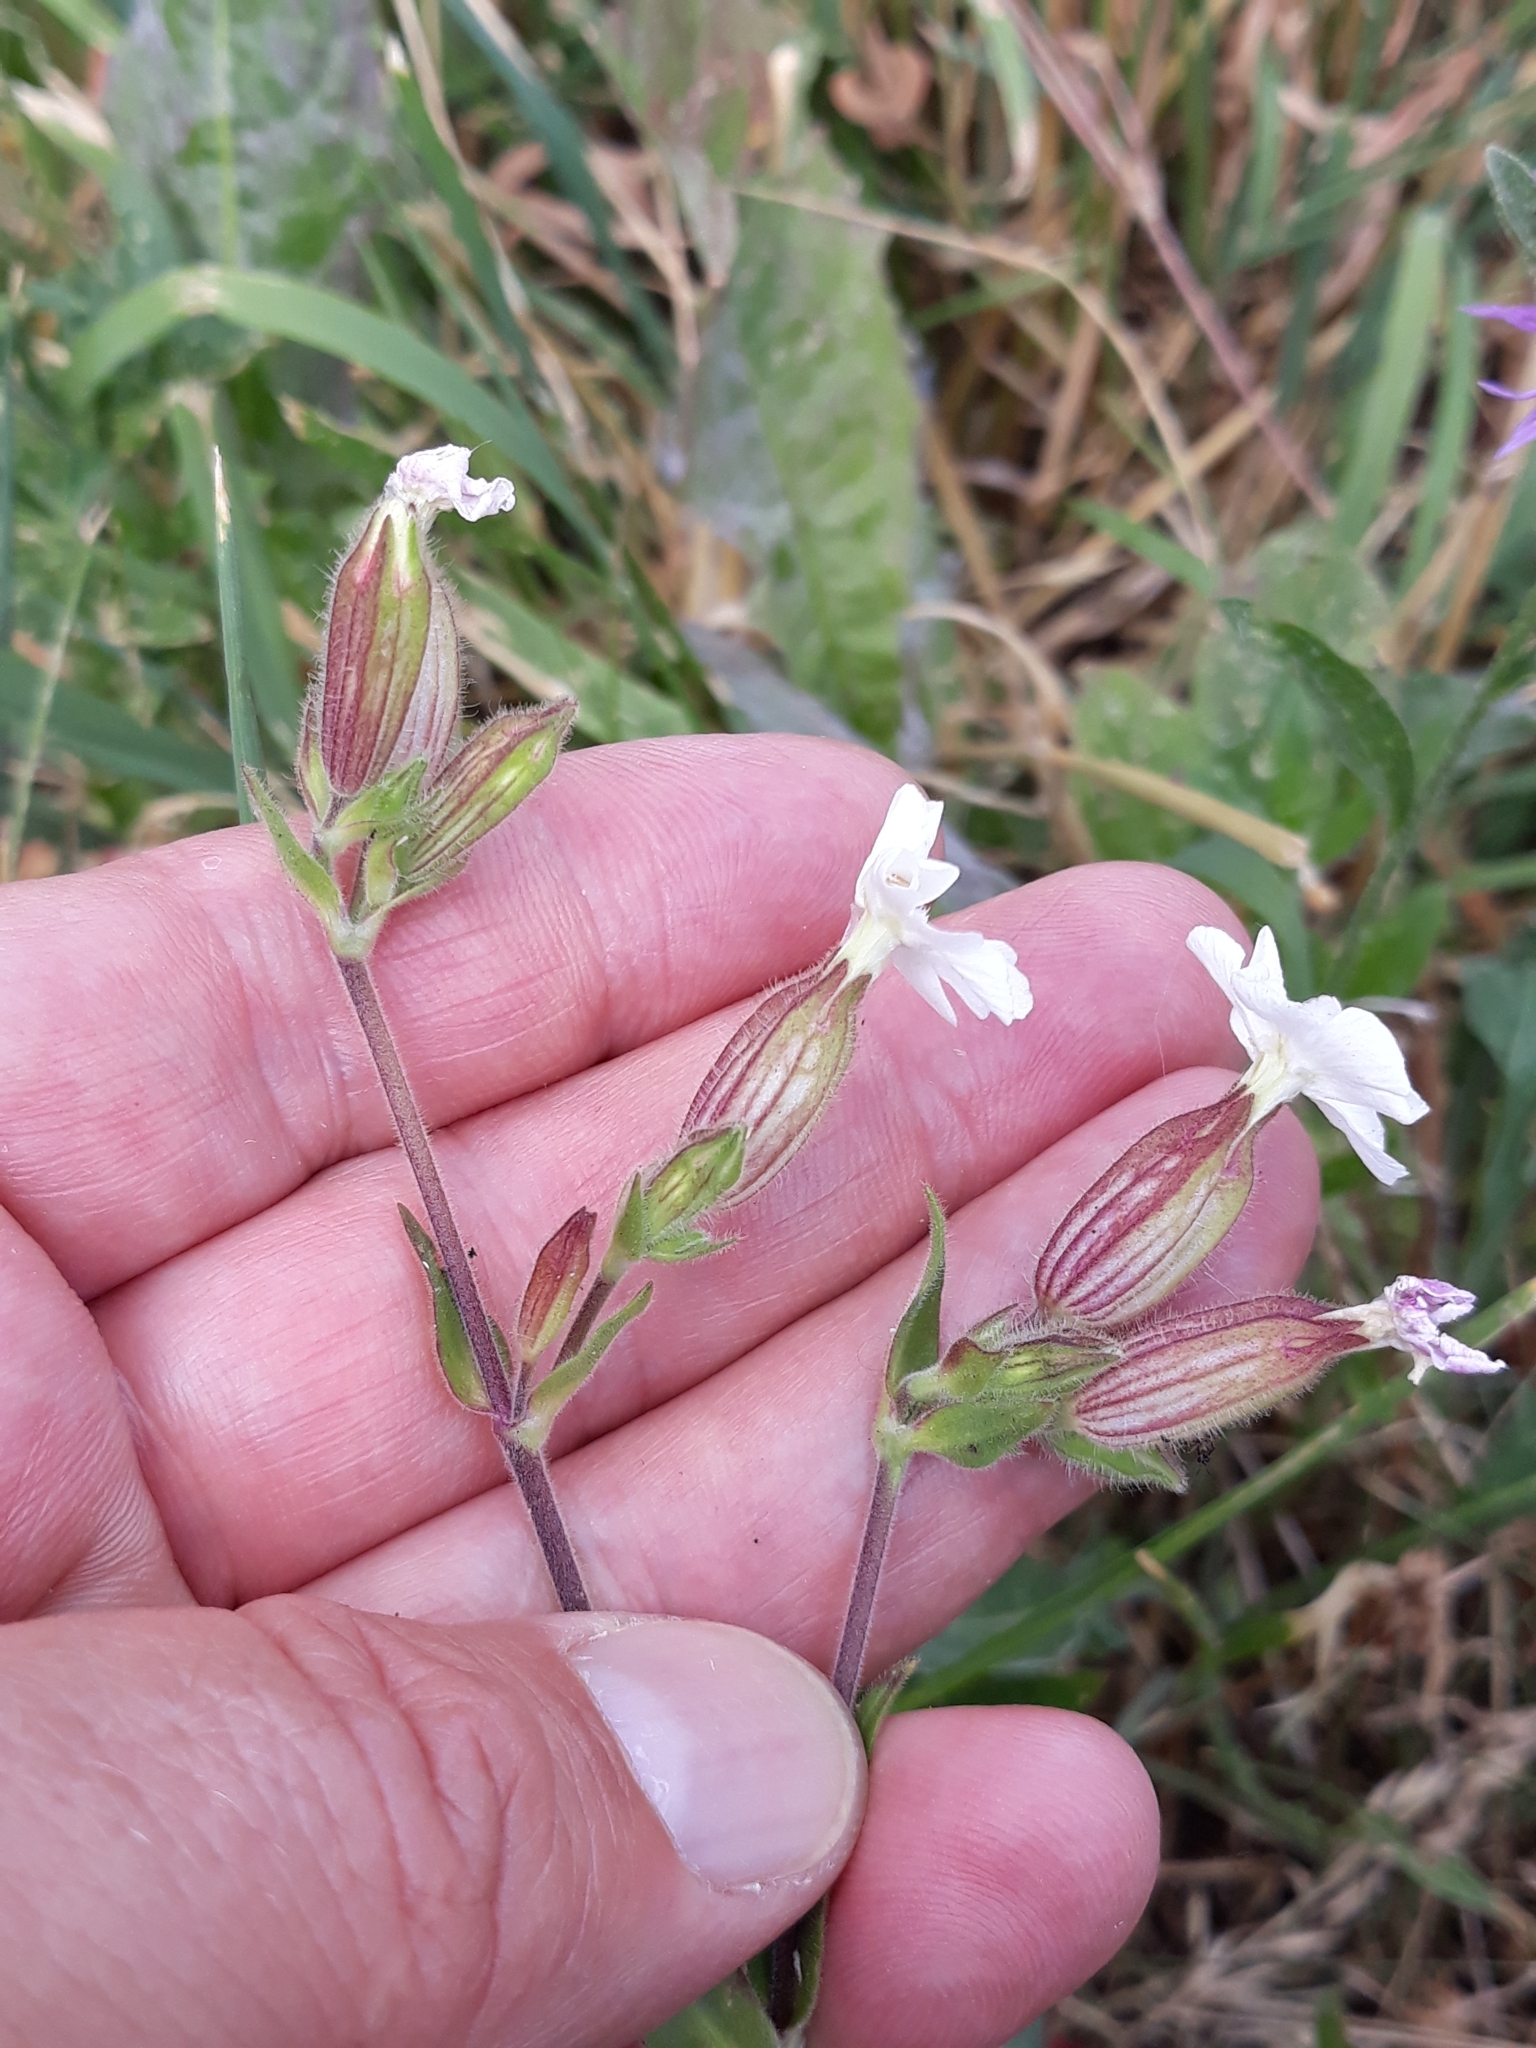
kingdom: Plantae
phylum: Tracheophyta
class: Magnoliopsida
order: Caryophyllales
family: Caryophyllaceae
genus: Silene
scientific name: Silene latifolia
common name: White campion
